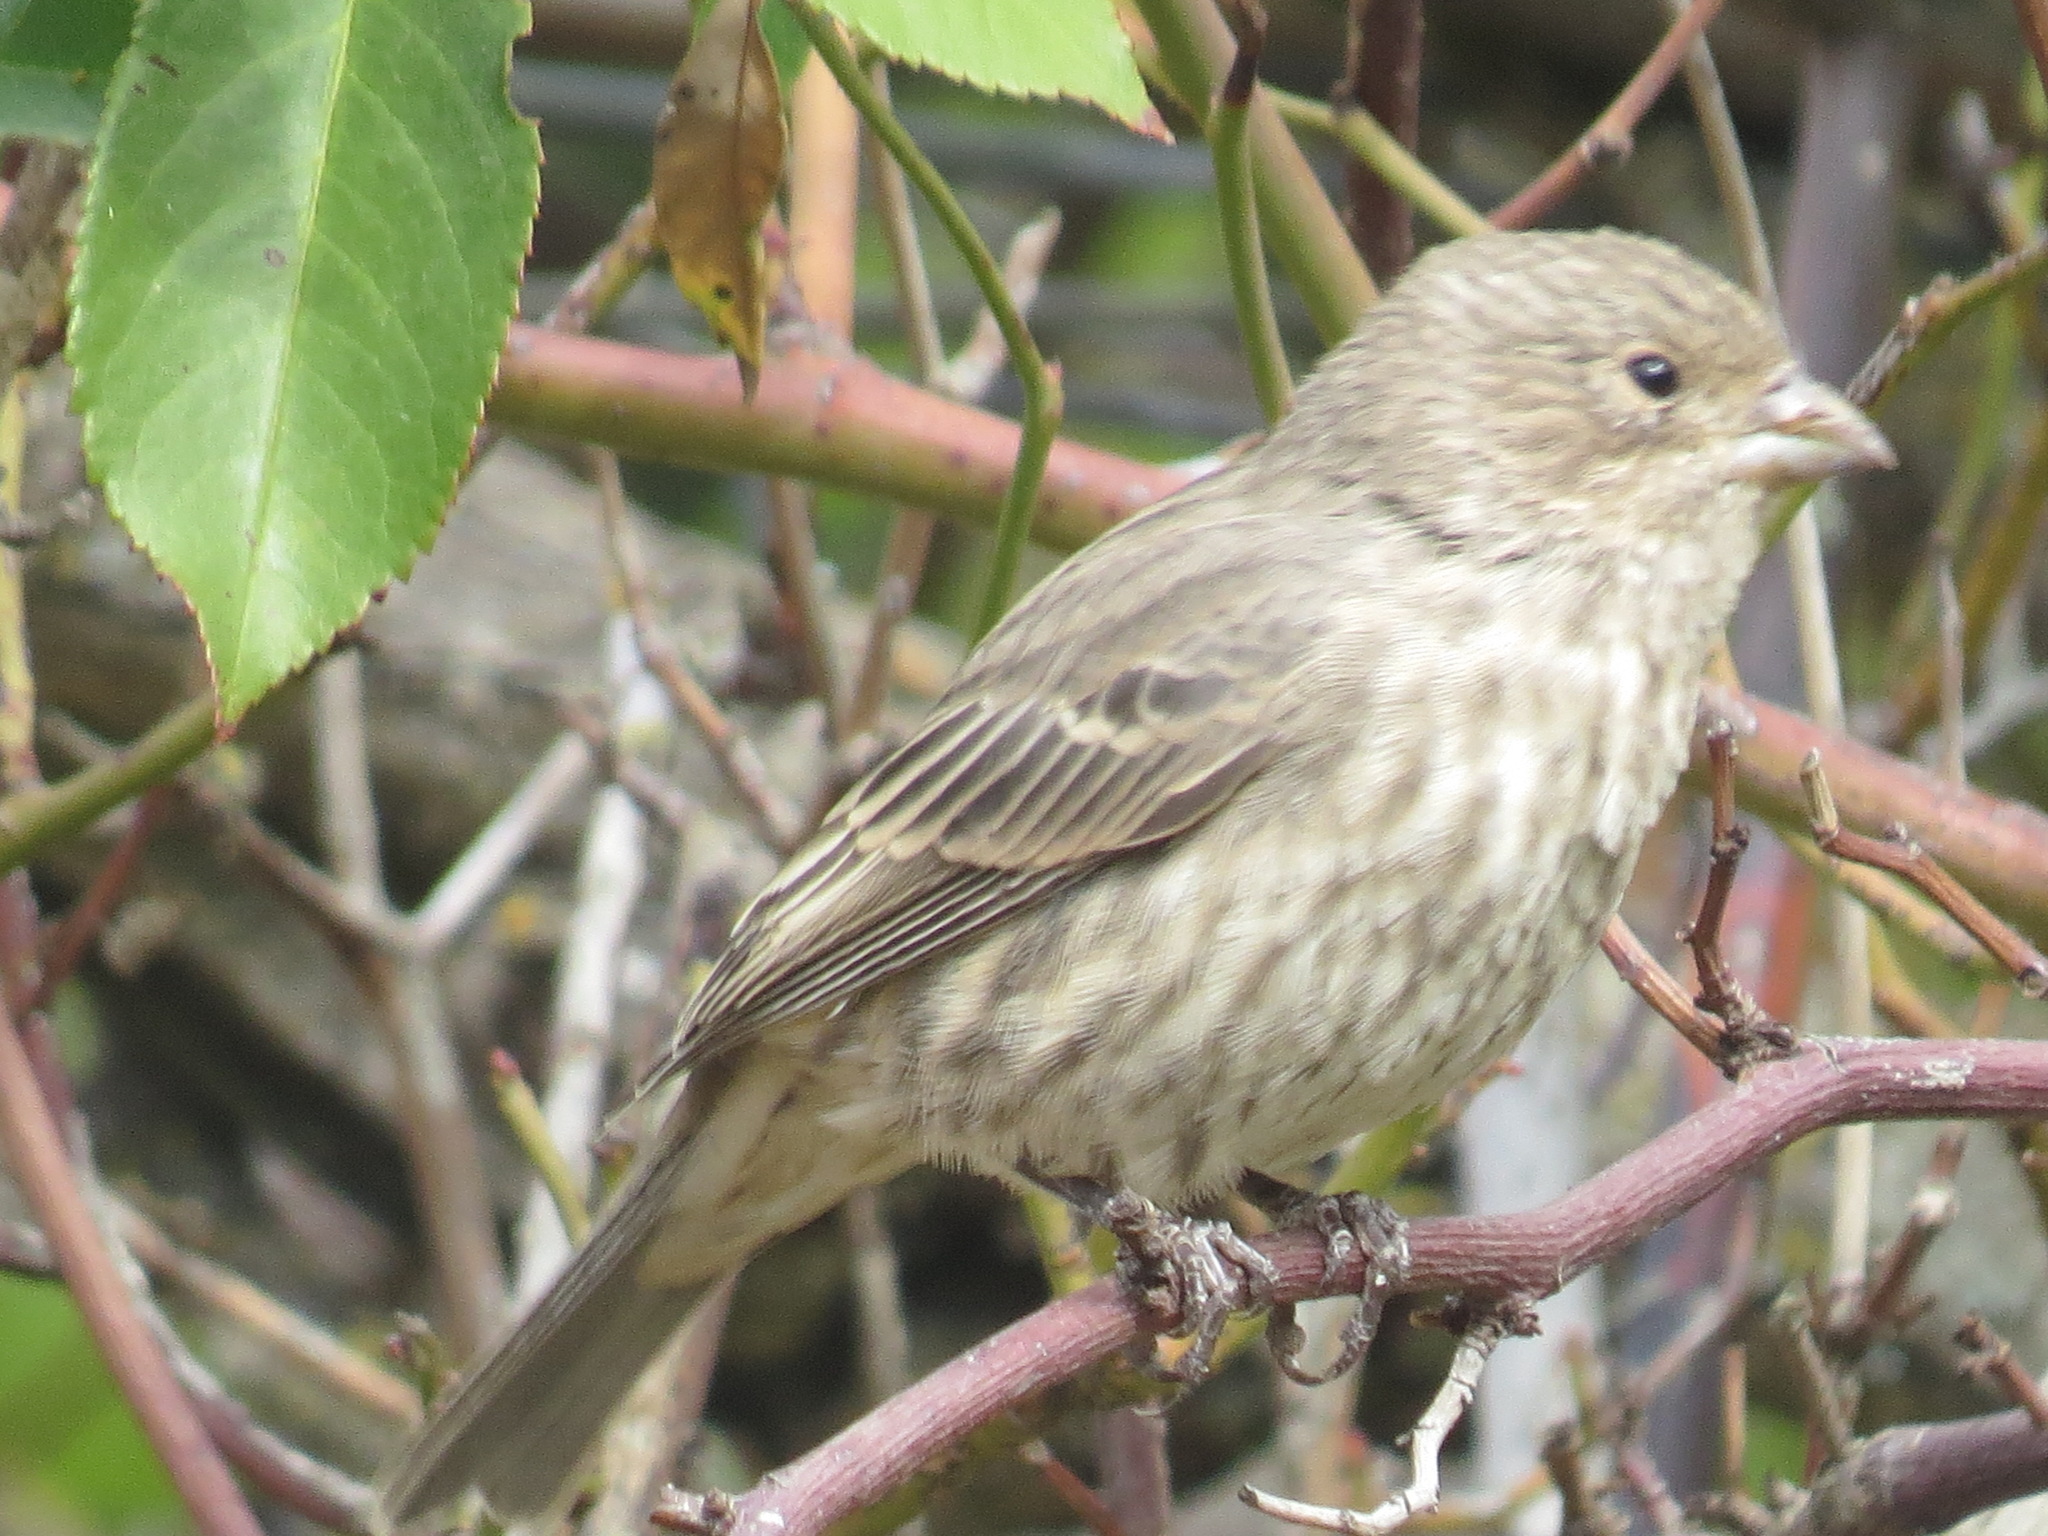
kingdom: Animalia
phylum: Chordata
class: Aves
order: Passeriformes
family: Fringillidae
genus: Haemorhous
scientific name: Haemorhous mexicanus
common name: House finch
